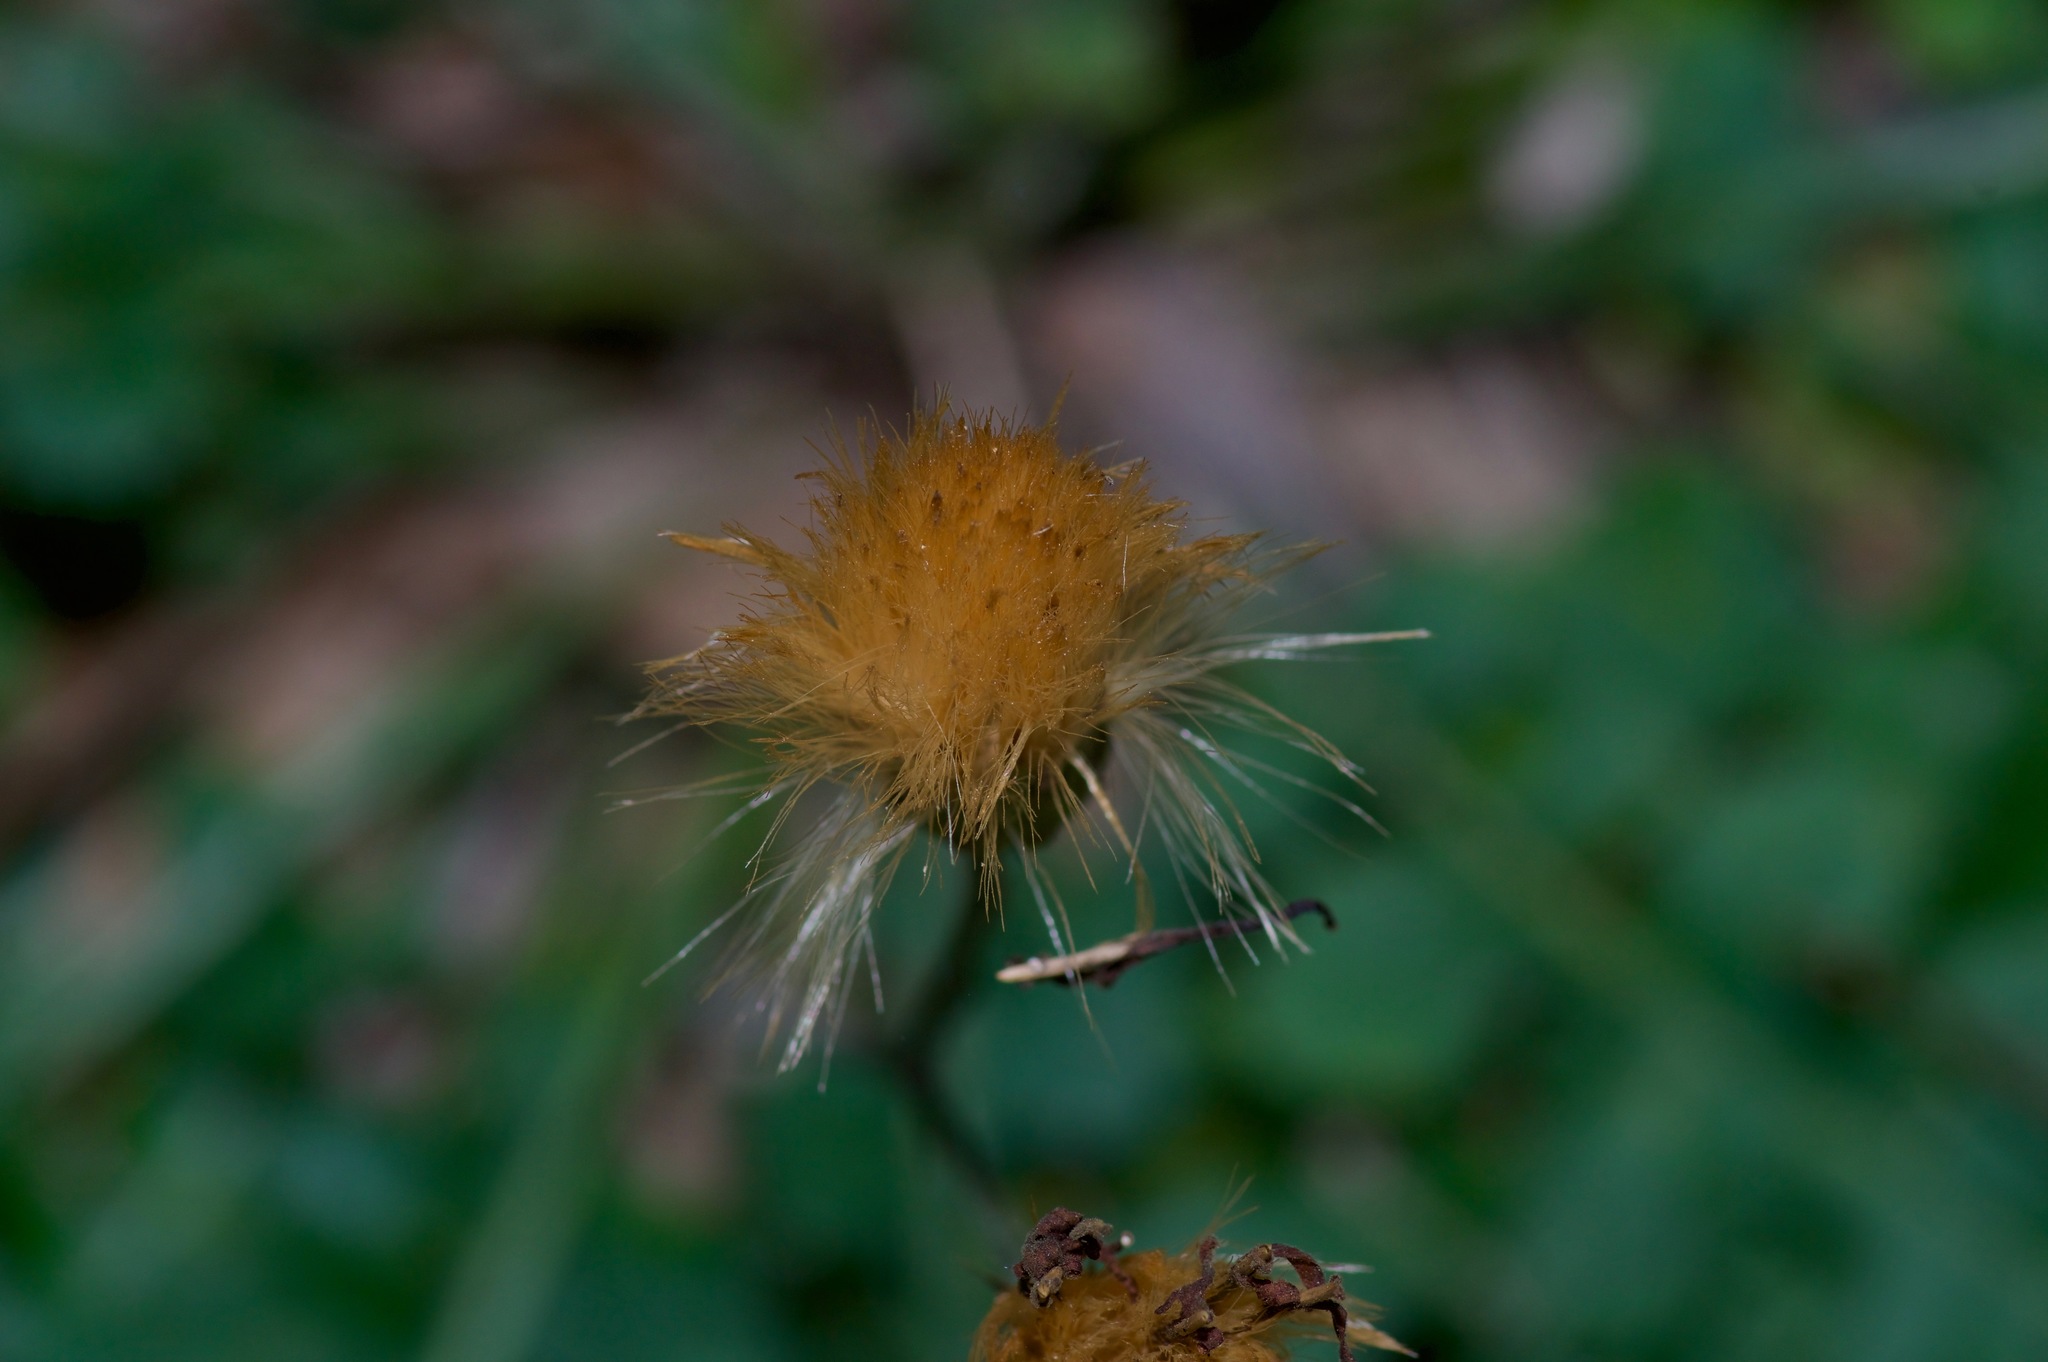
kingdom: Plantae
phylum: Tracheophyta
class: Magnoliopsida
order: Asterales
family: Asteraceae
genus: Acourtia
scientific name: Acourtia runcinata
